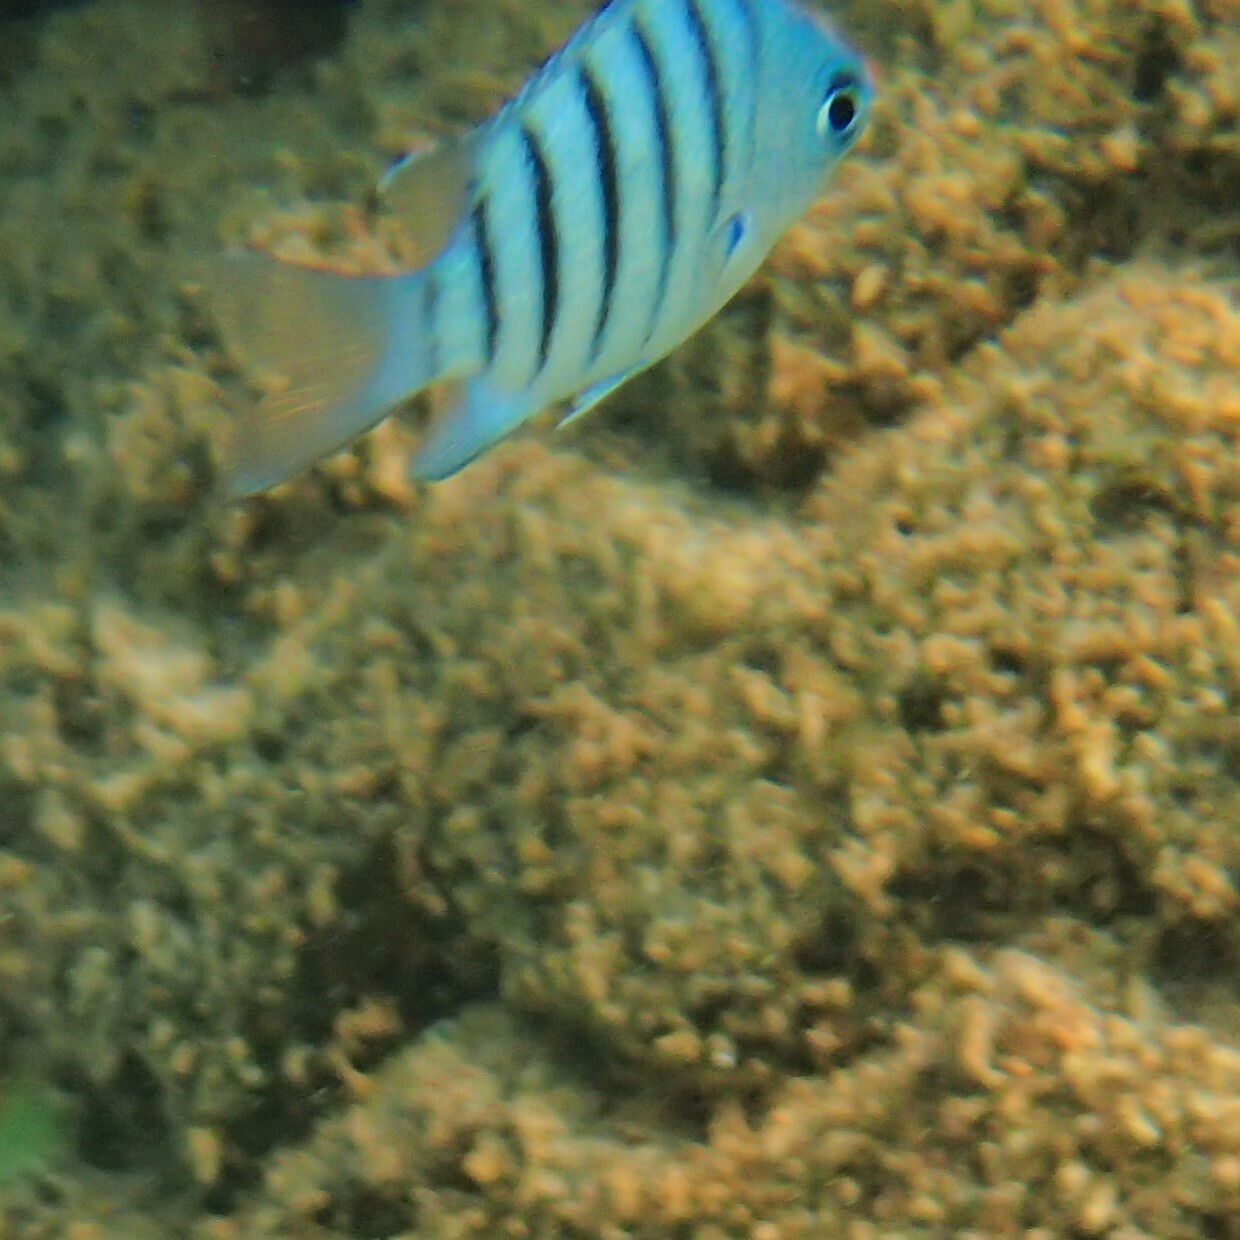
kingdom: Animalia
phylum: Chordata
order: Perciformes
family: Pomacentridae
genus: Abudefduf
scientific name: Abudefduf bengalensis
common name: Bengal sergeant
